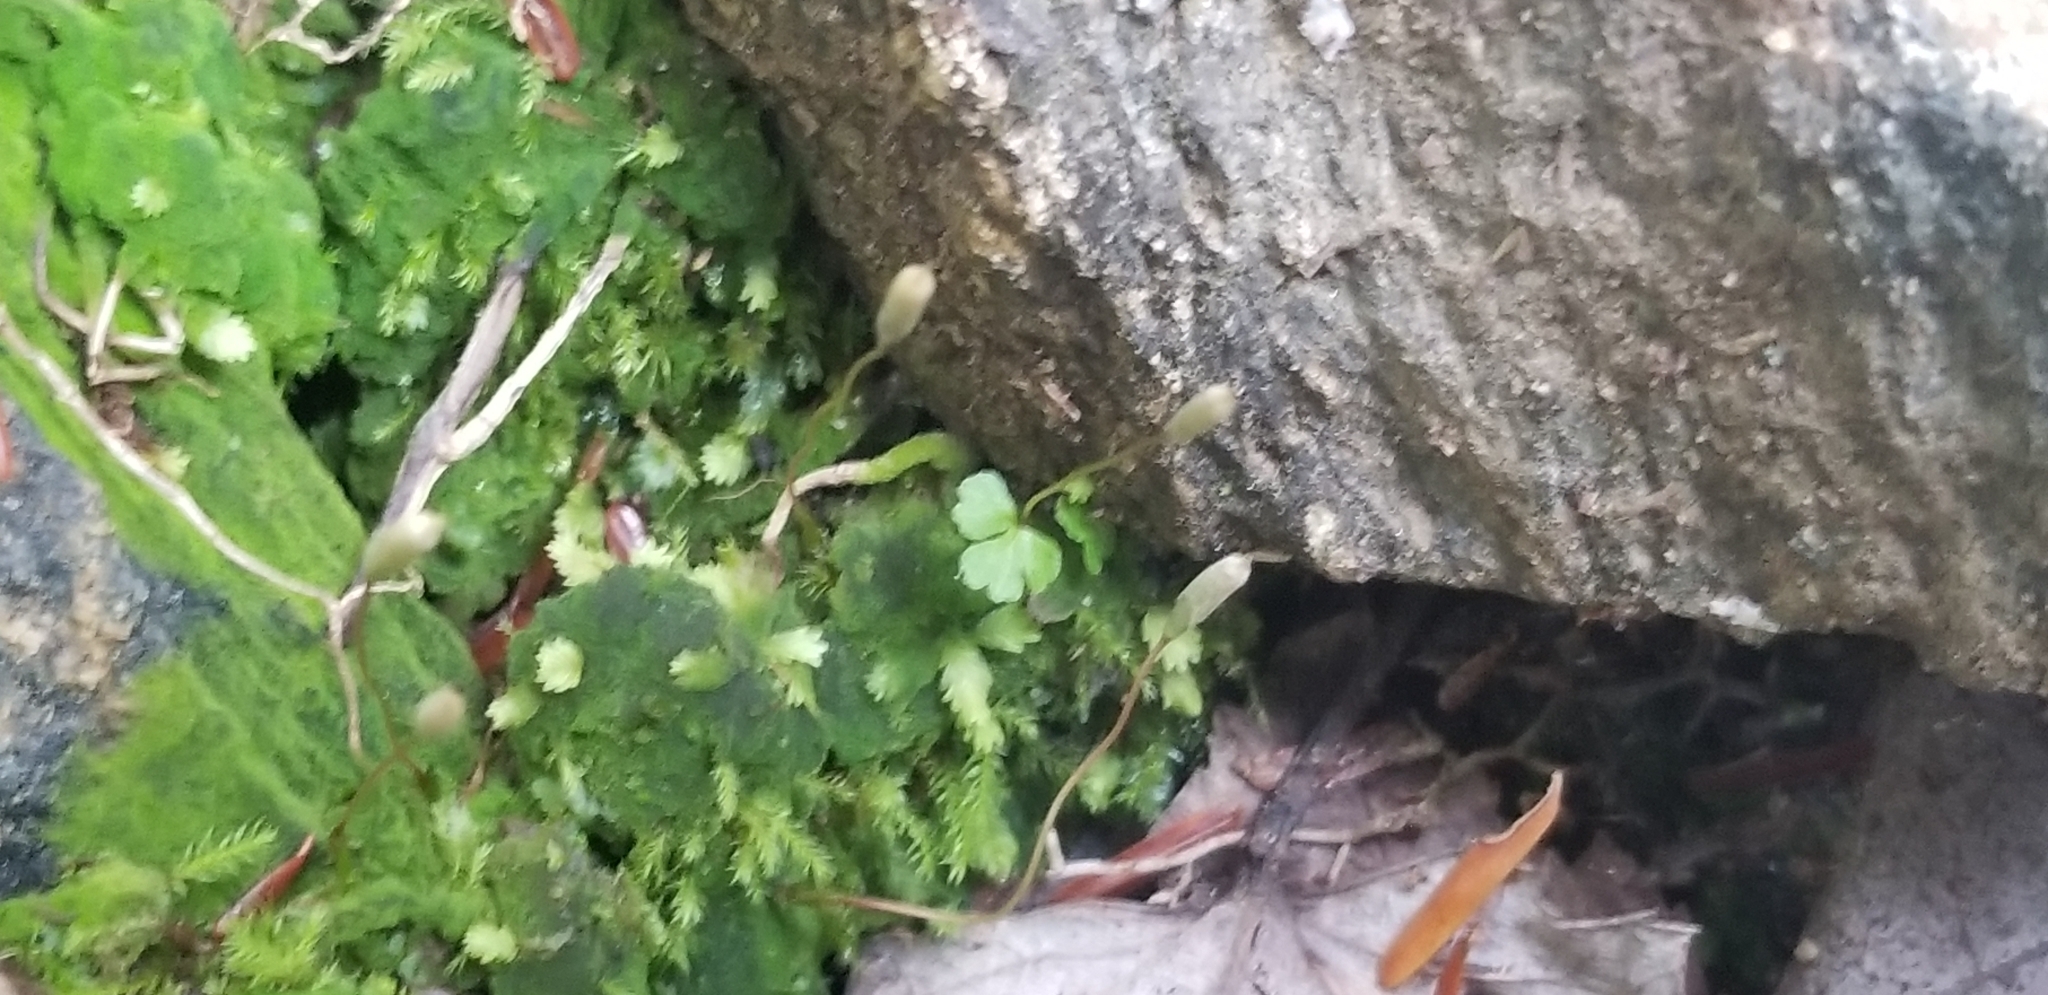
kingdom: Plantae
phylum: Bryophyta
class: Polytrichopsida
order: Polytrichales
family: Polytrichaceae
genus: Pogonatum
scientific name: Pogonatum pensilvanicum
